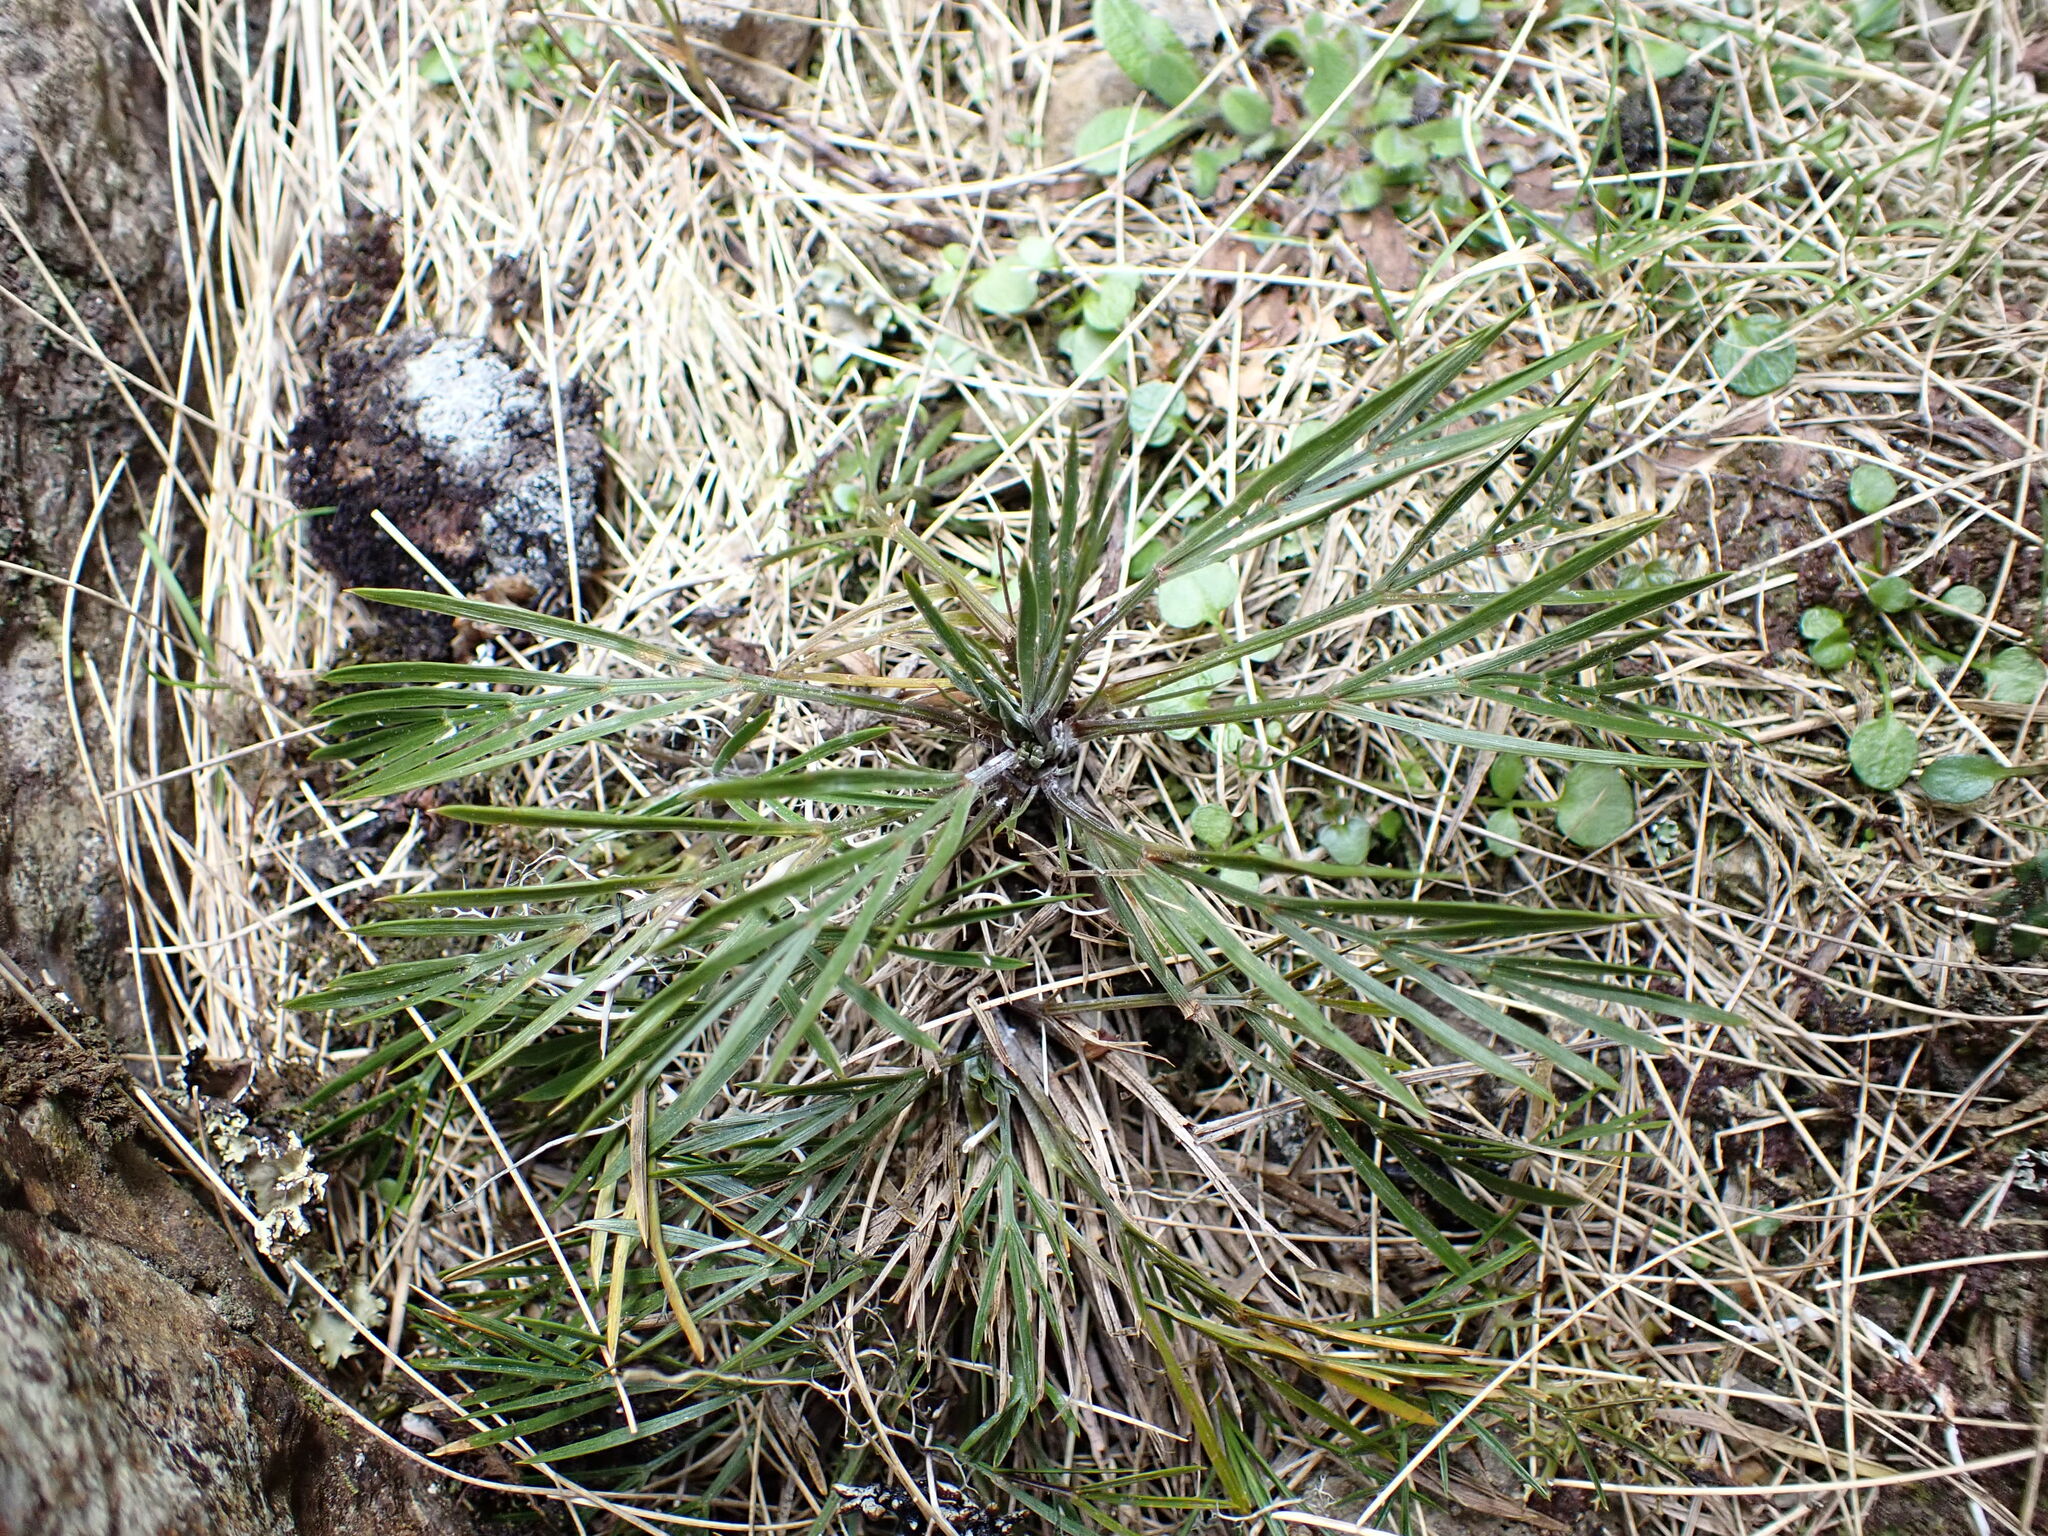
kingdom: Plantae
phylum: Tracheophyta
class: Magnoliopsida
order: Apiales
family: Apiaceae
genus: Aciphylla
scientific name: Aciphylla monroi
